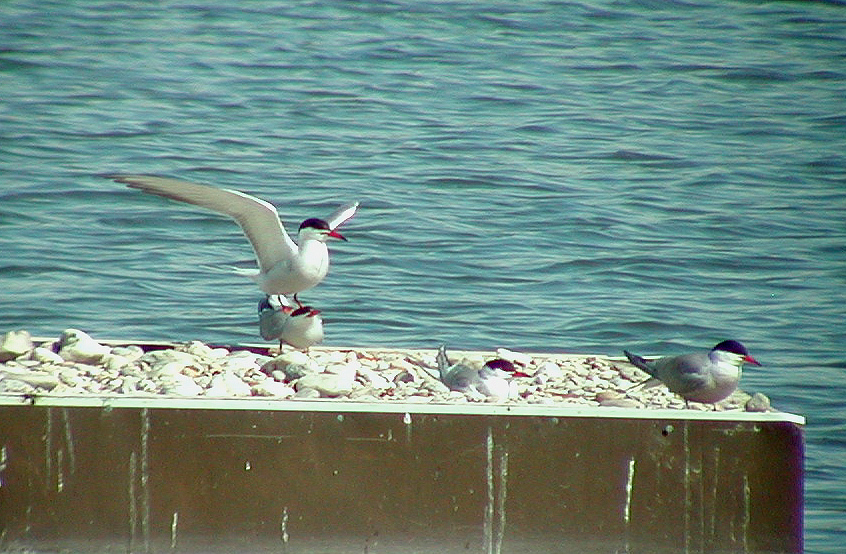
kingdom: Animalia
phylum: Chordata
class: Aves
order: Charadriiformes
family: Laridae
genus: Sterna
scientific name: Sterna hirundo
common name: Common tern
